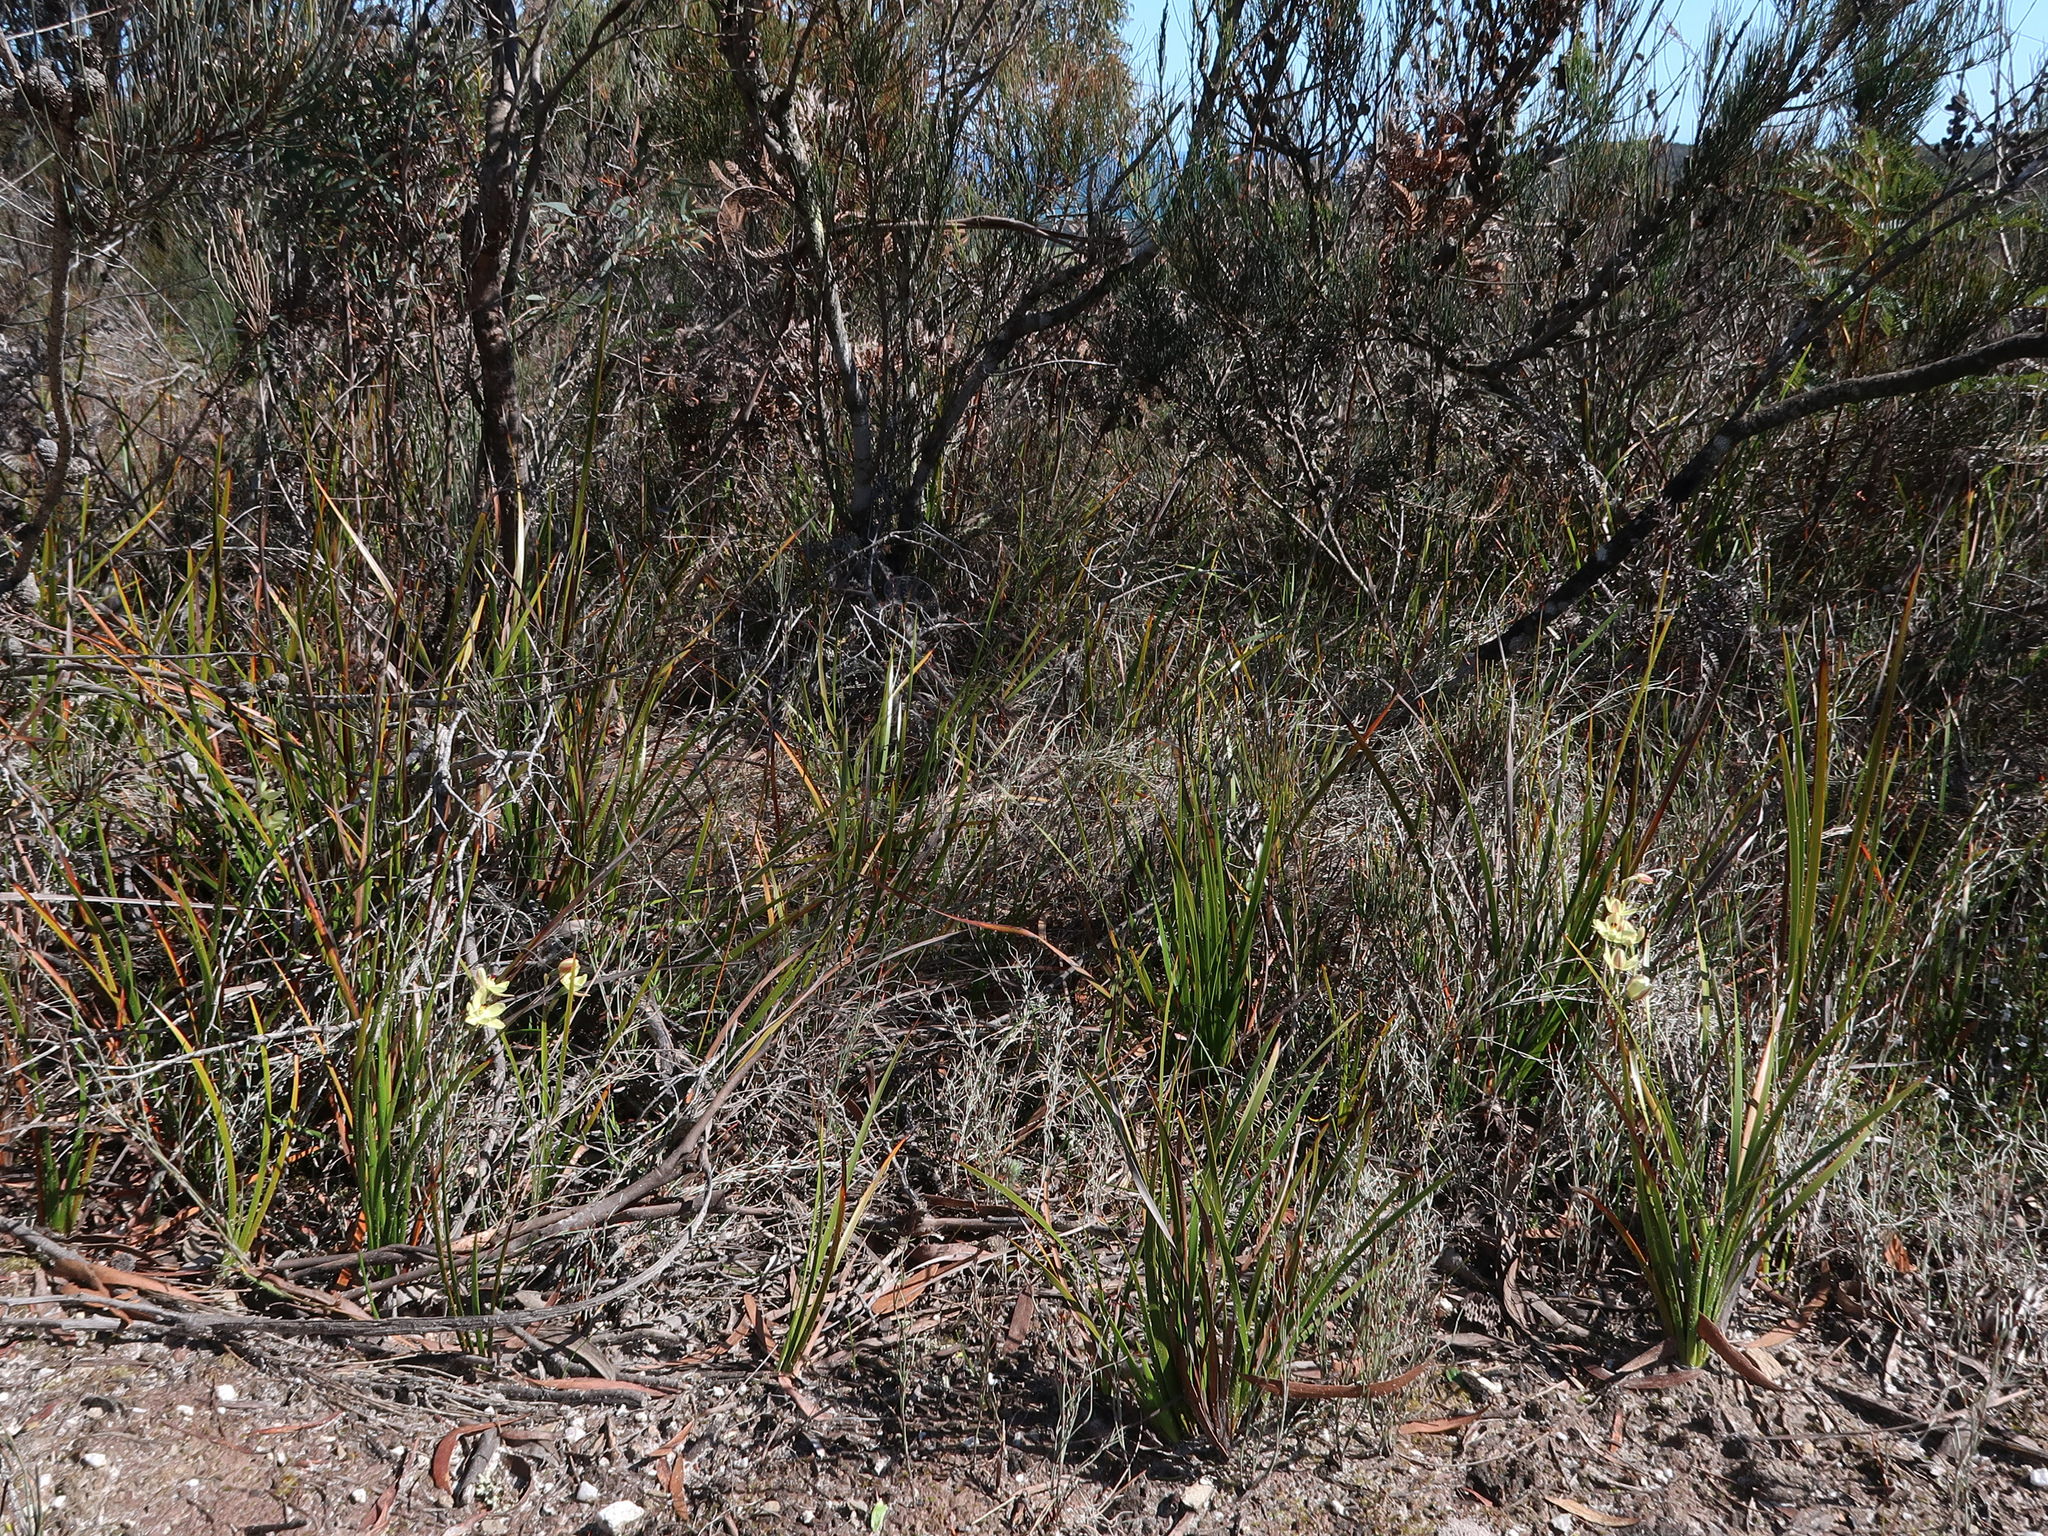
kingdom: Plantae
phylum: Tracheophyta
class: Liliopsida
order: Asparagales
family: Orchidaceae
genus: Thelymitra
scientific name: Thelymitra antennifera
